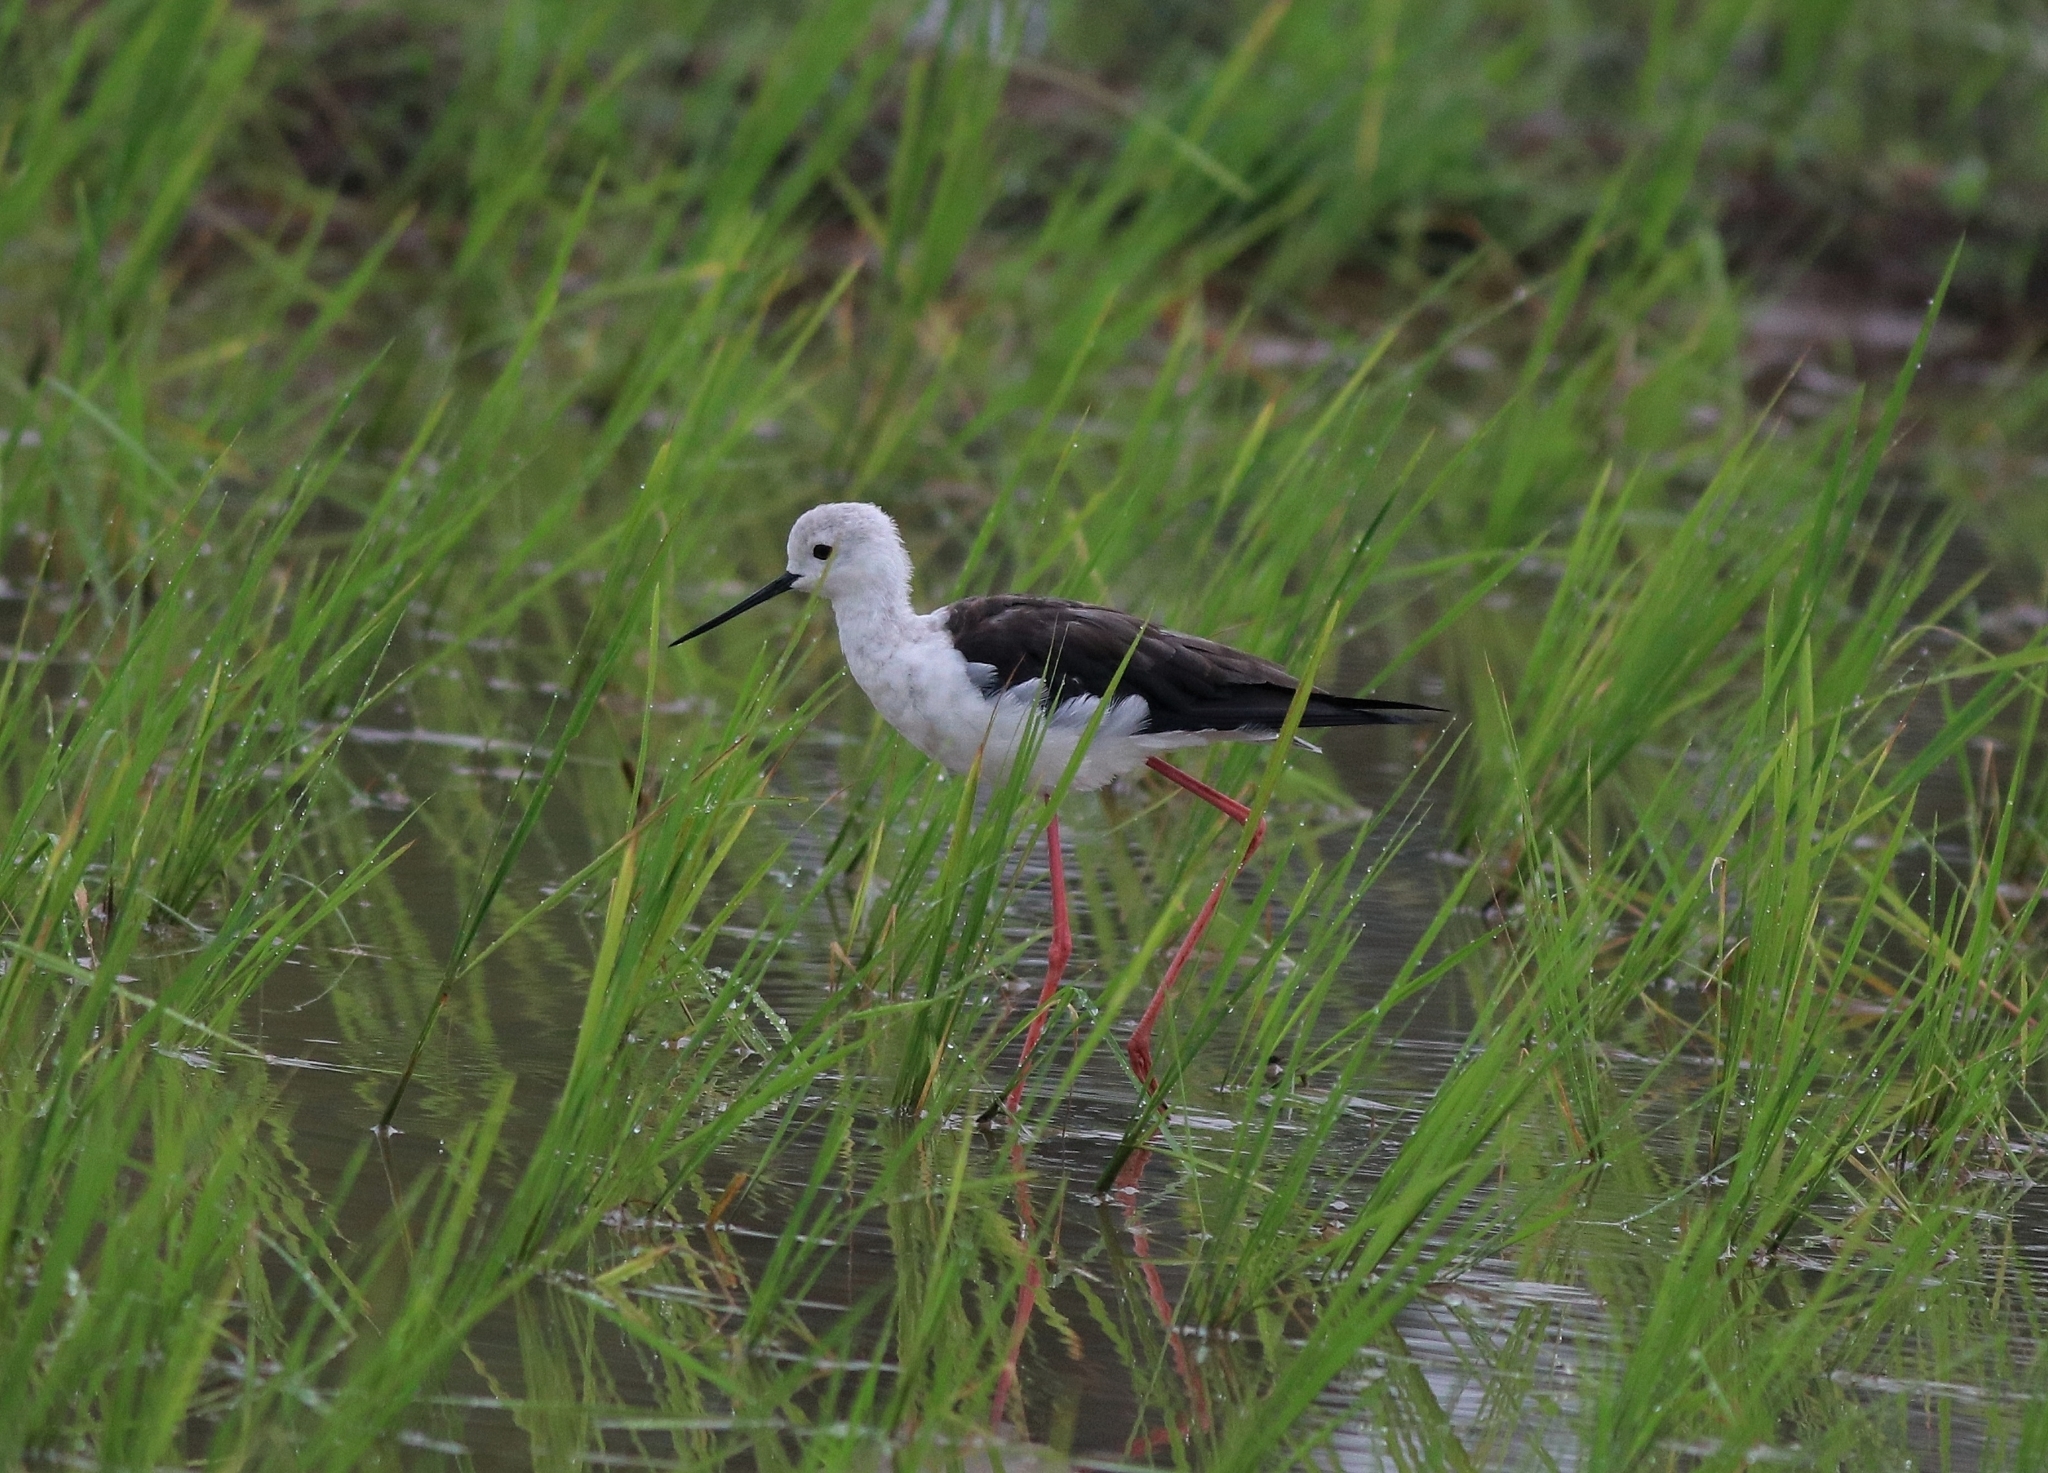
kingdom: Animalia
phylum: Chordata
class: Aves
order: Charadriiformes
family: Recurvirostridae
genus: Himantopus
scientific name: Himantopus himantopus
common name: Black-winged stilt
